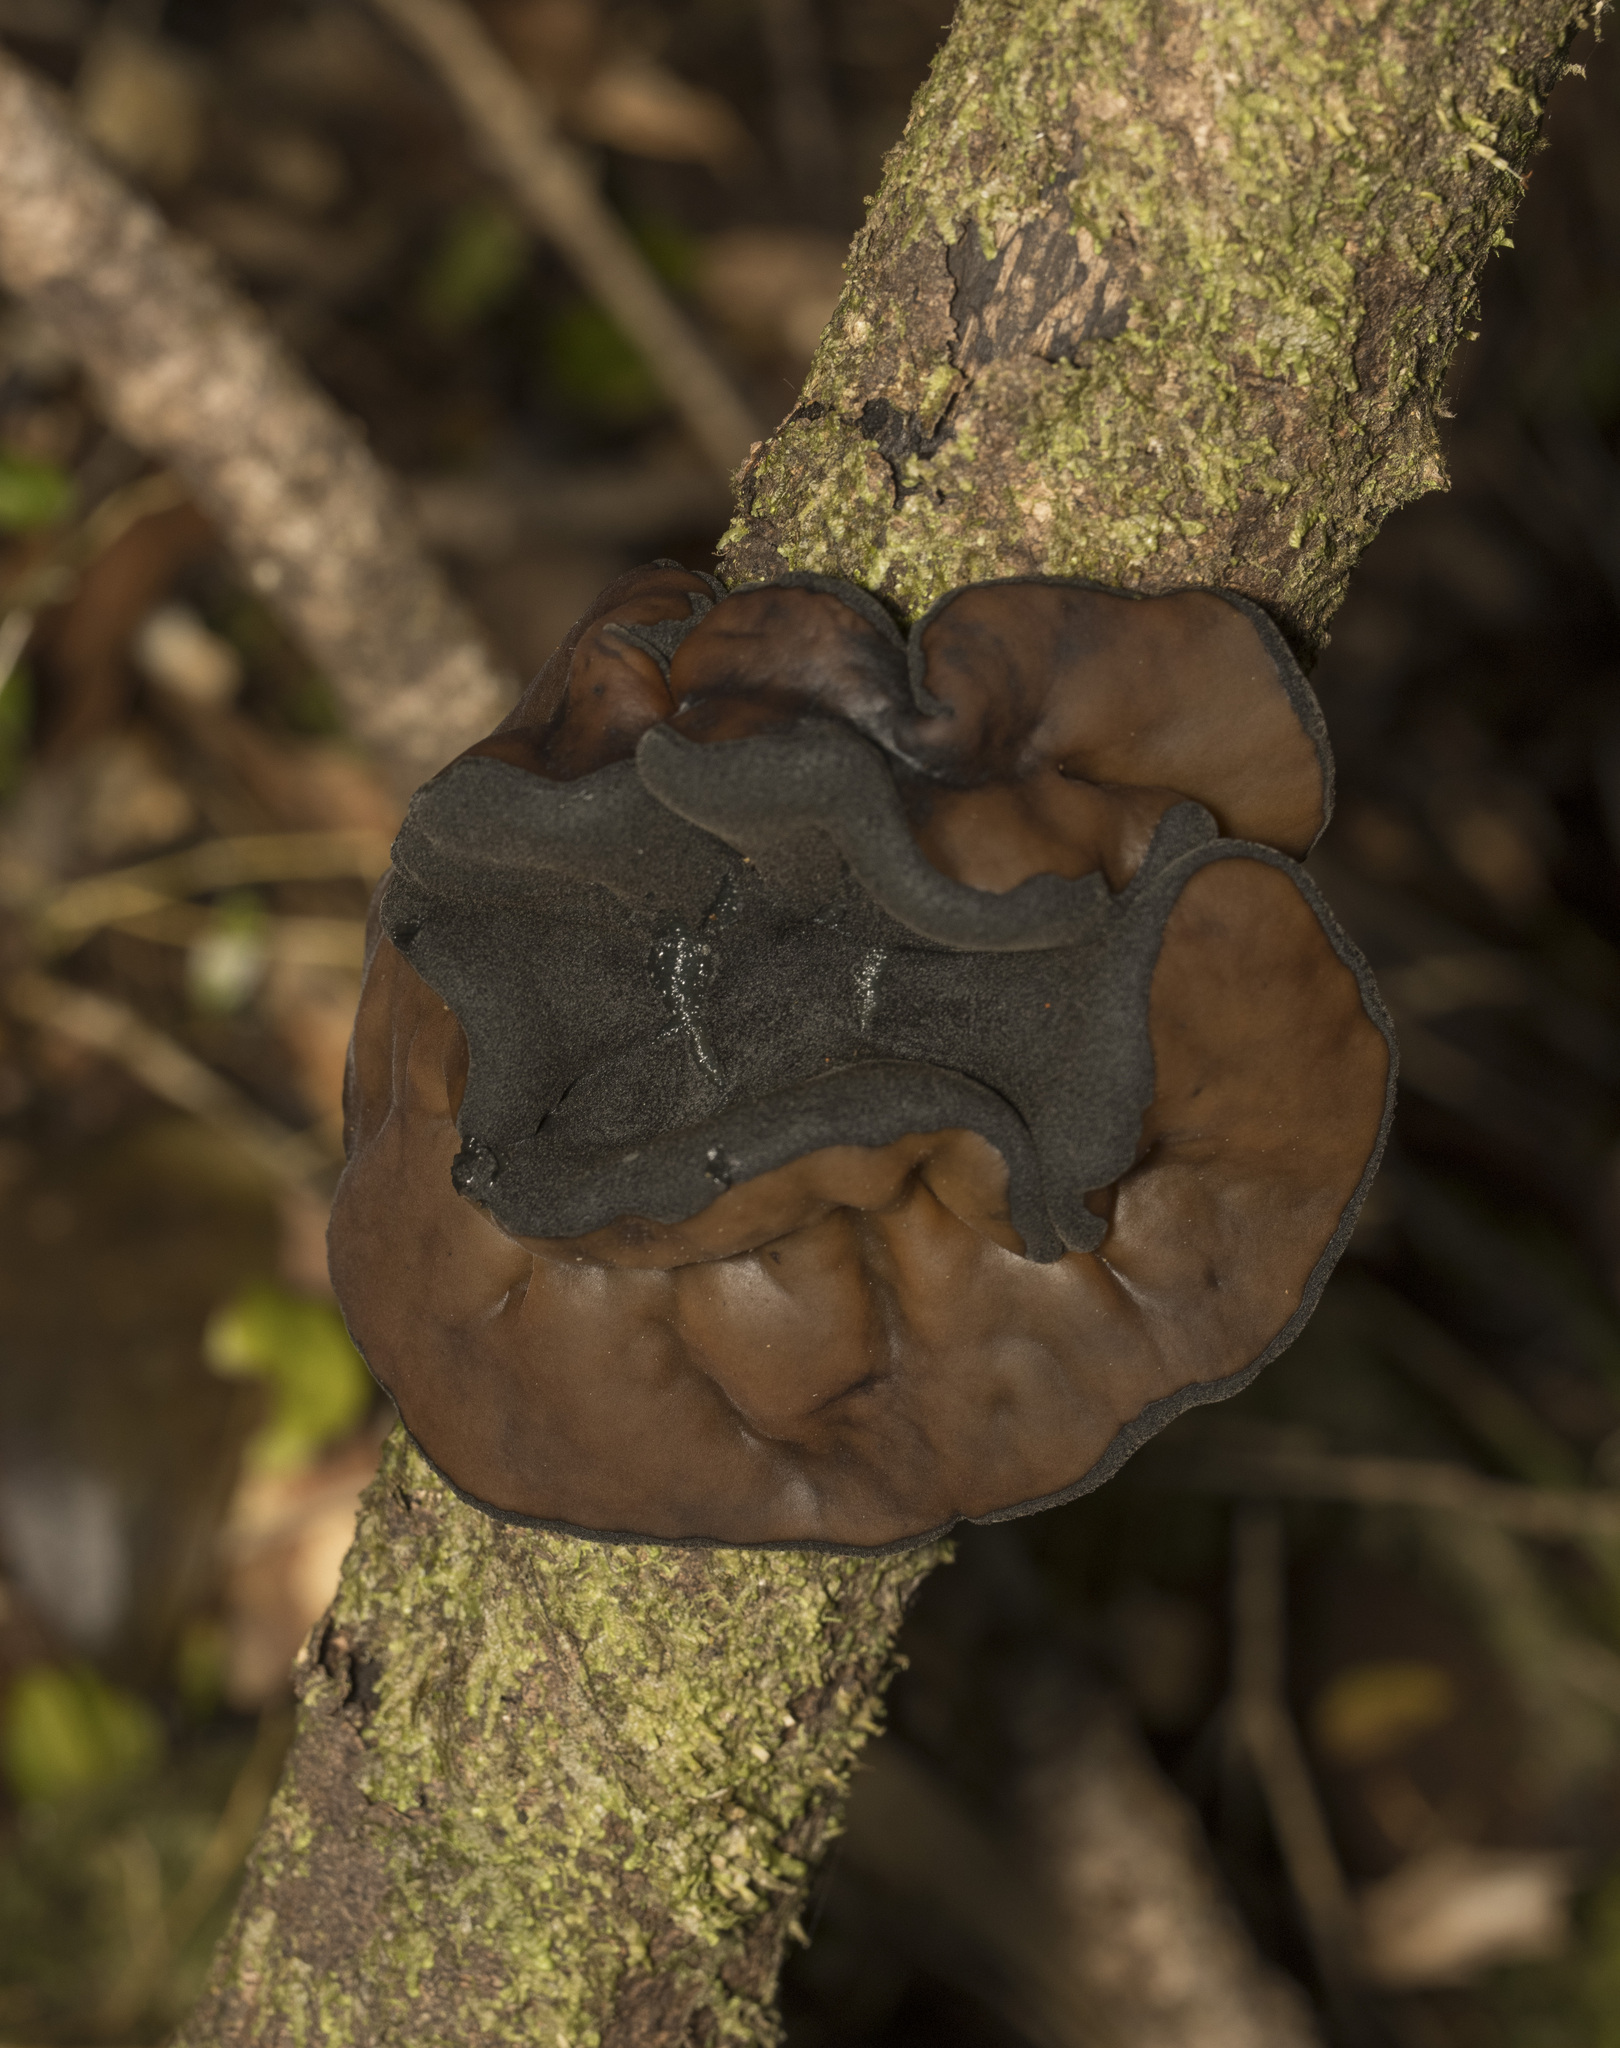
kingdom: Fungi
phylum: Ascomycota
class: Pezizomycetes
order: Pezizales
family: Sarcosomataceae
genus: Plectania
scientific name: Plectania chilensis
